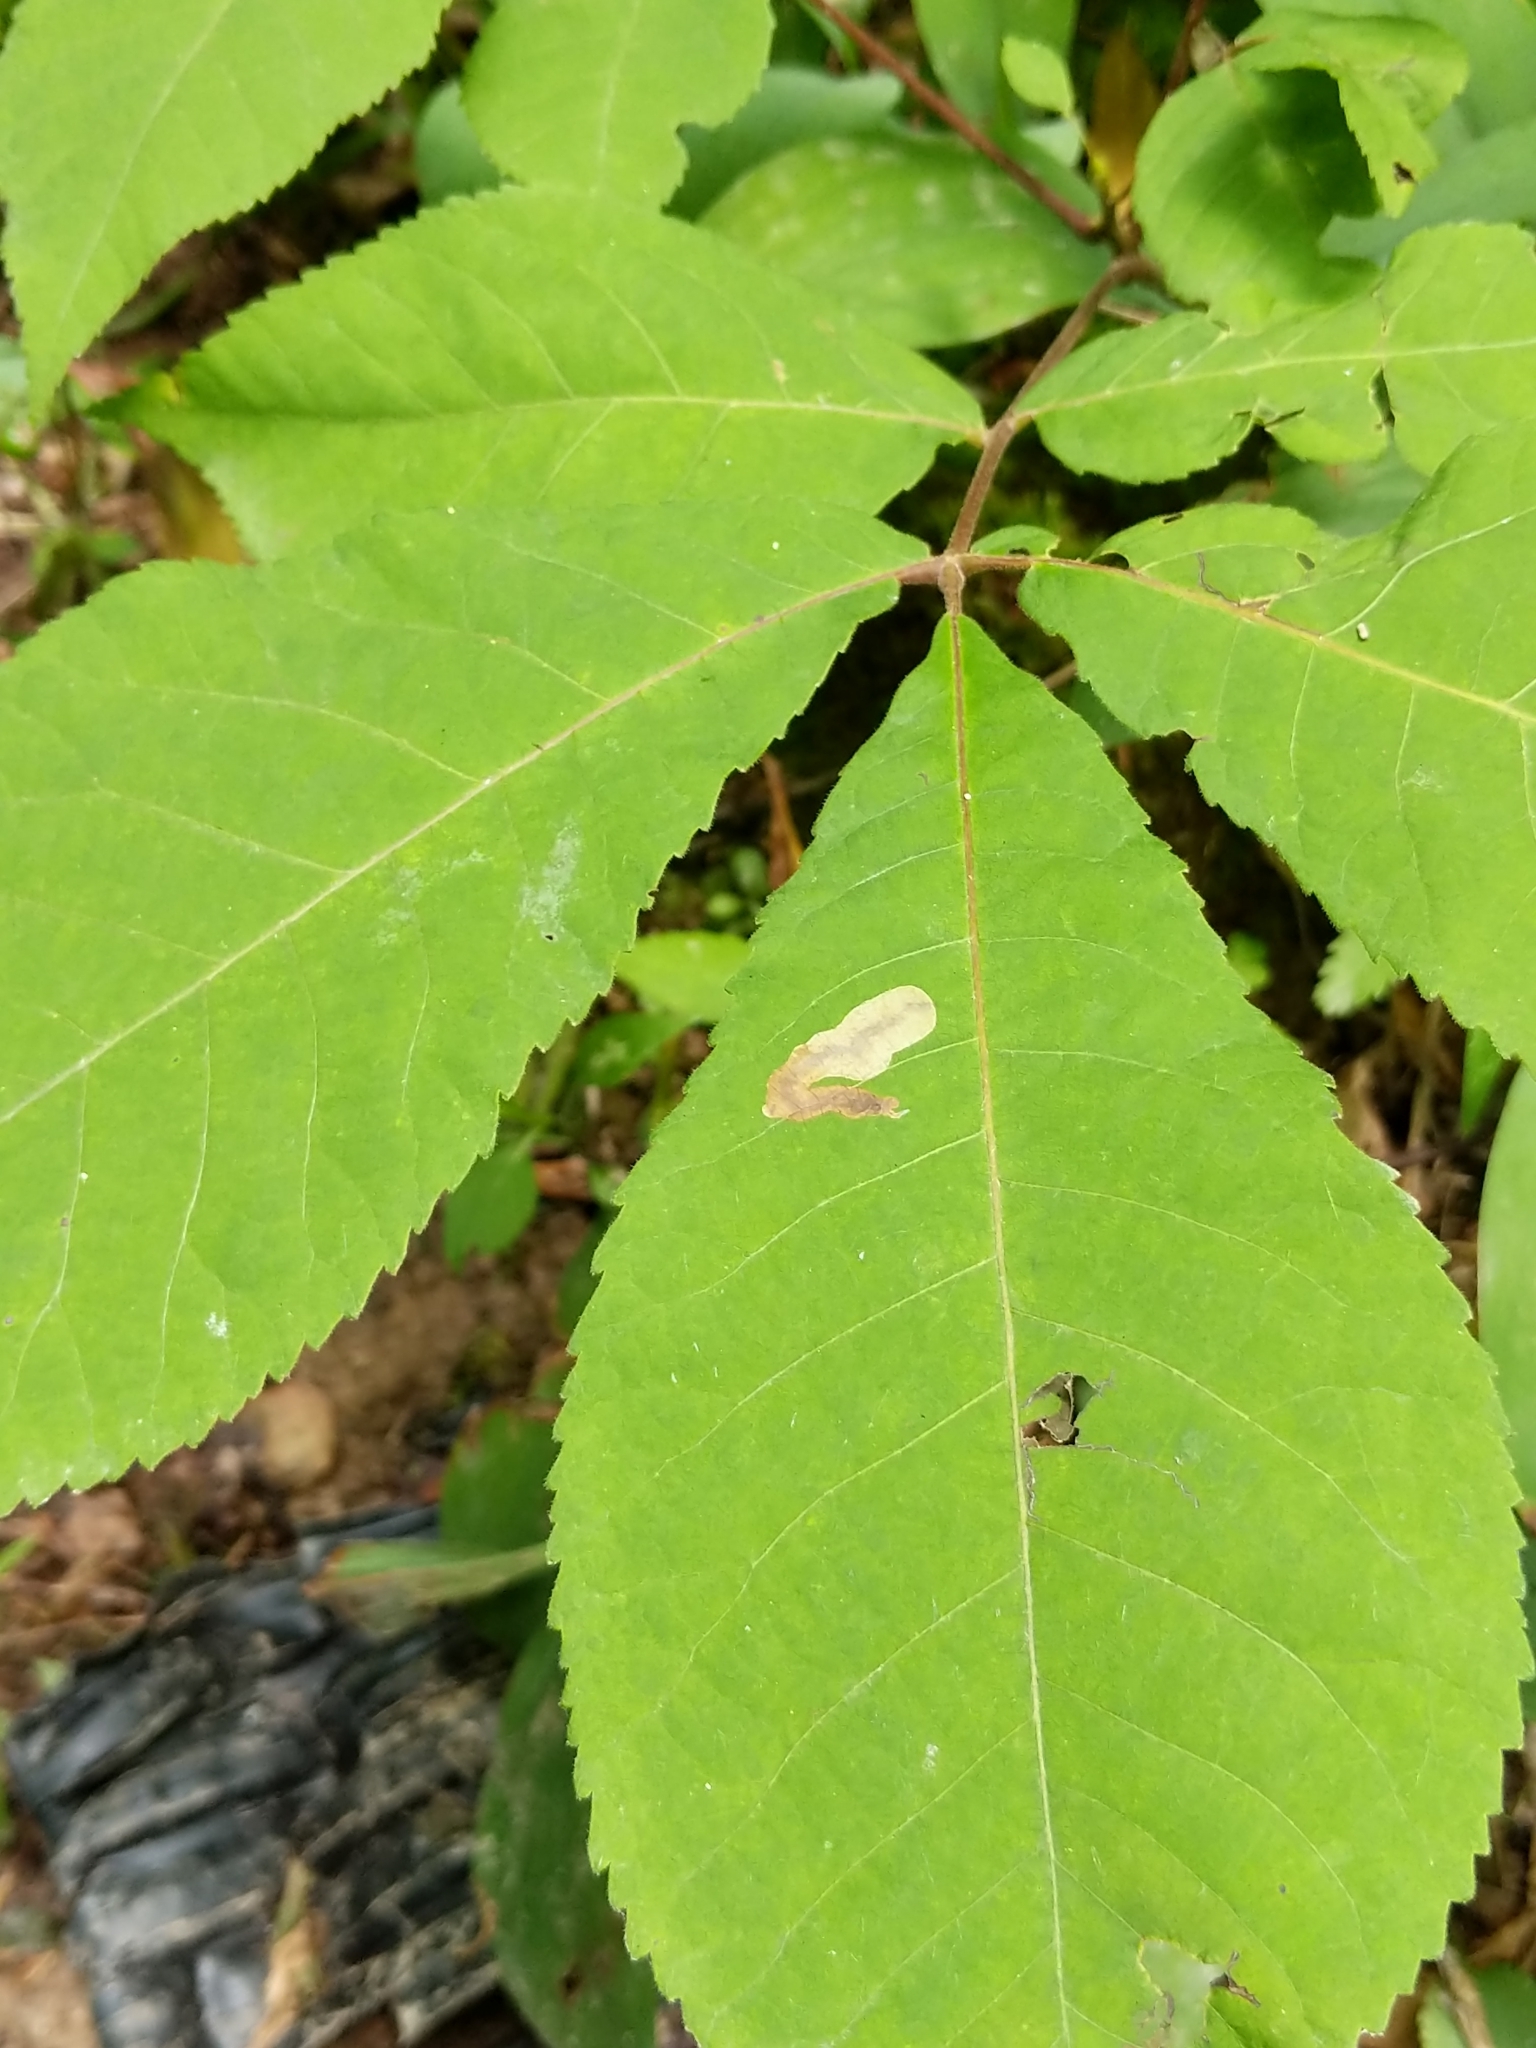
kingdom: Animalia
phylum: Arthropoda
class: Insecta
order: Lepidoptera
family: Gracillariidae
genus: Cameraria
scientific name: Cameraria caryaefoliella
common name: Pecan leafminer moth
